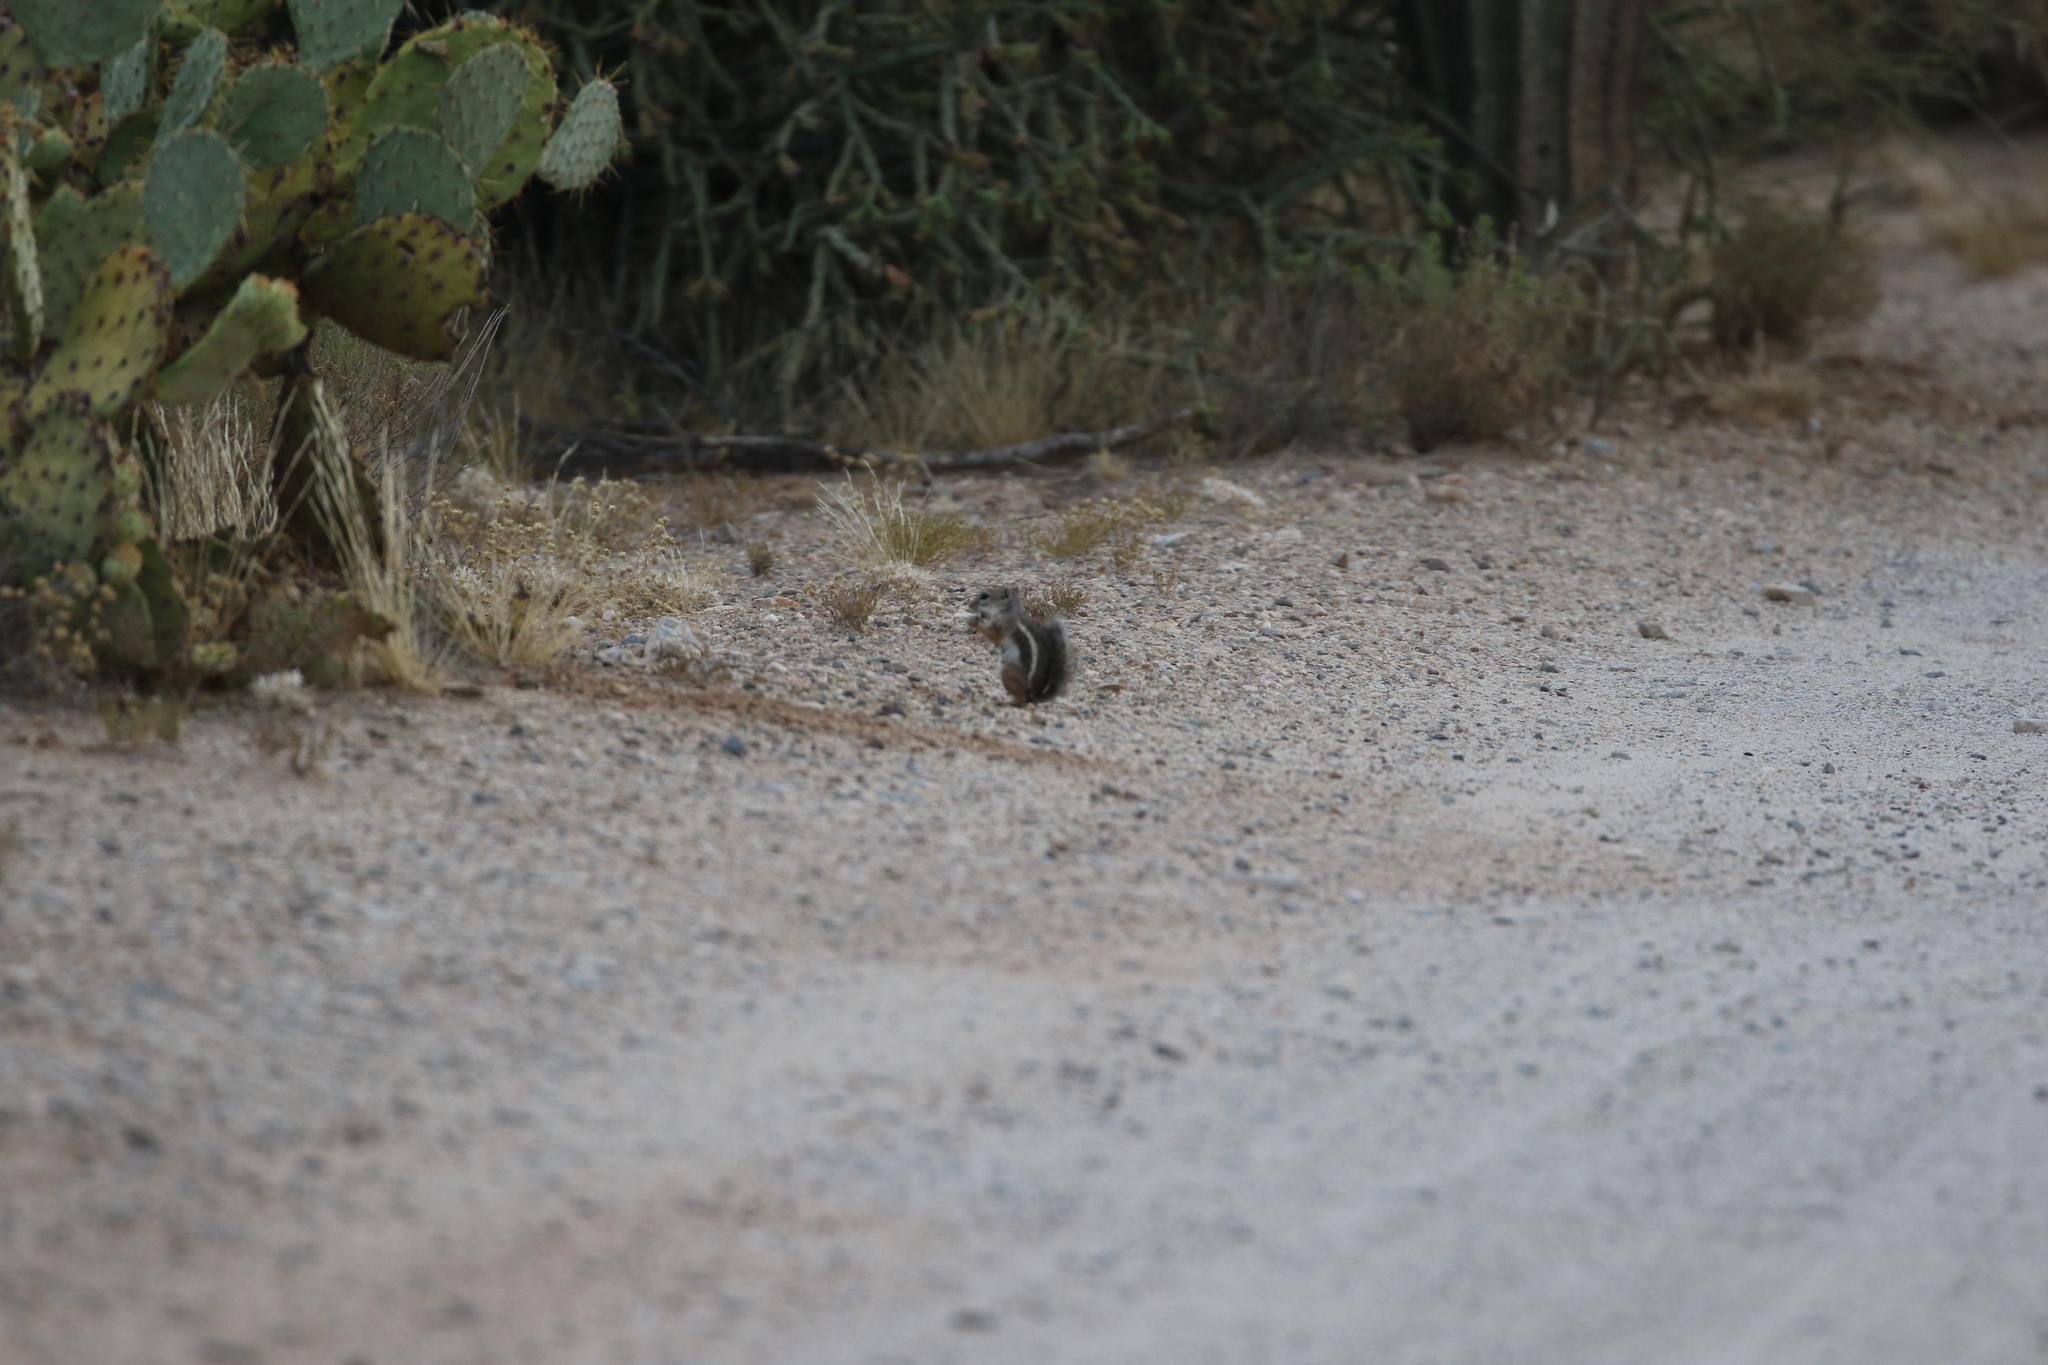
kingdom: Animalia
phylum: Chordata
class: Mammalia
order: Rodentia
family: Sciuridae
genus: Ammospermophilus
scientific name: Ammospermophilus harrisii
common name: Harris's antelope squirrel
